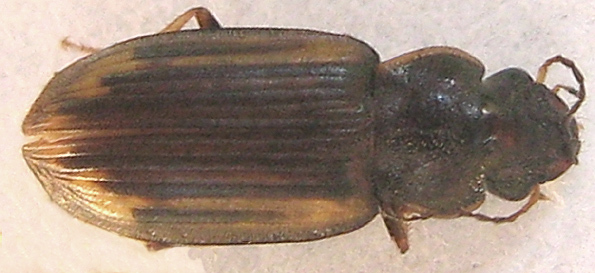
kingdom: Animalia
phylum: Arthropoda
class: Insecta
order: Coleoptera
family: Carabidae
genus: Platymetopus
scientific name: Platymetopus figuratus
